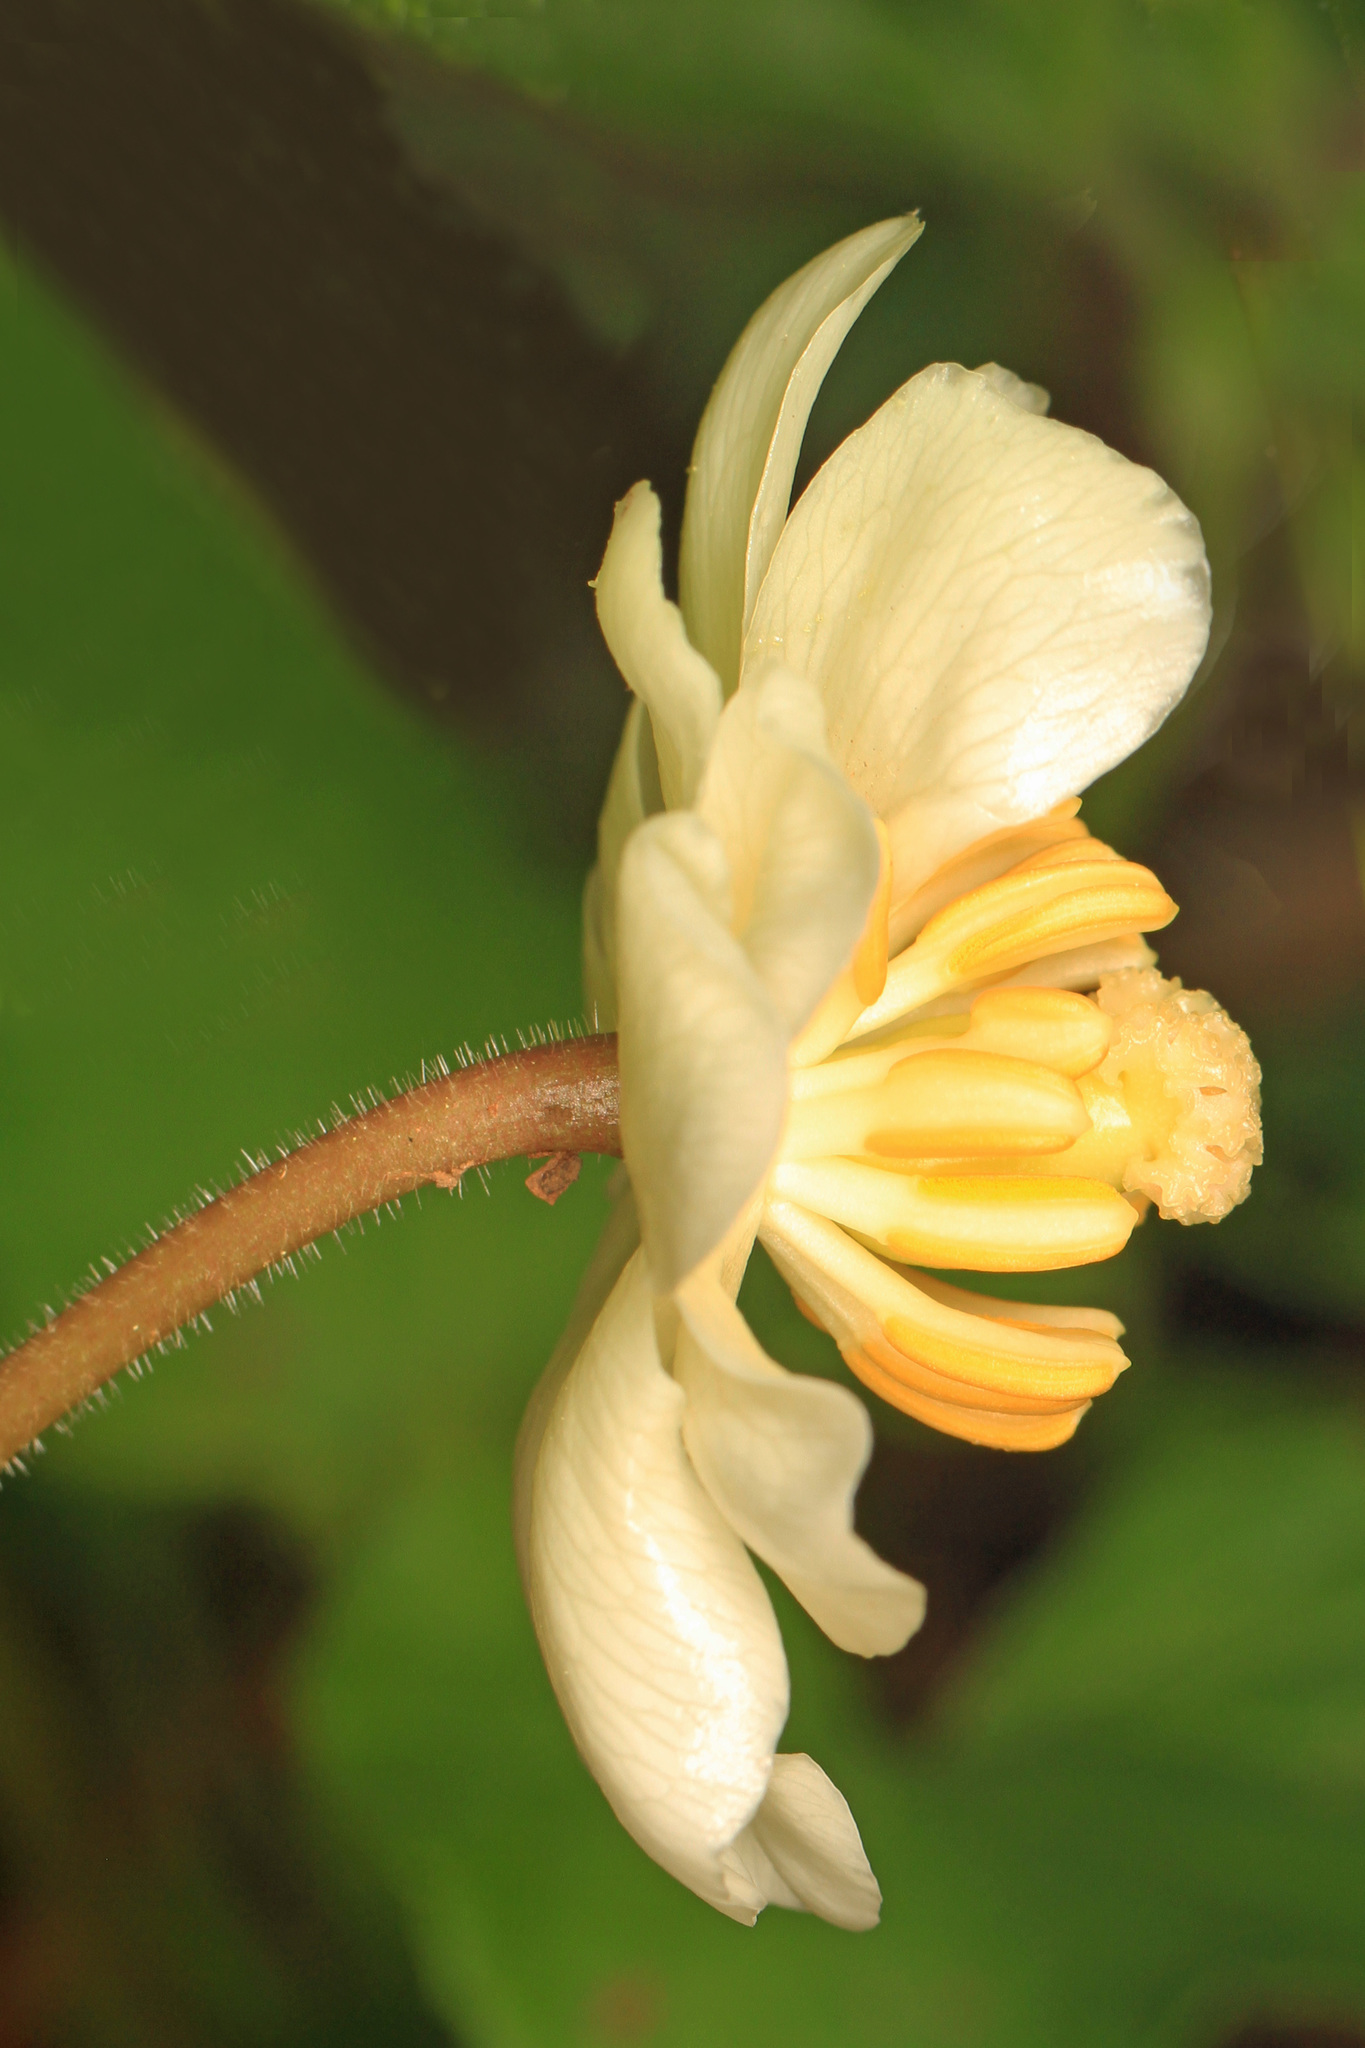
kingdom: Plantae
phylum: Tracheophyta
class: Magnoliopsida
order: Ranunculales
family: Berberidaceae
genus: Podophyllum
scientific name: Podophyllum peltatum
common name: Wild mandrake
